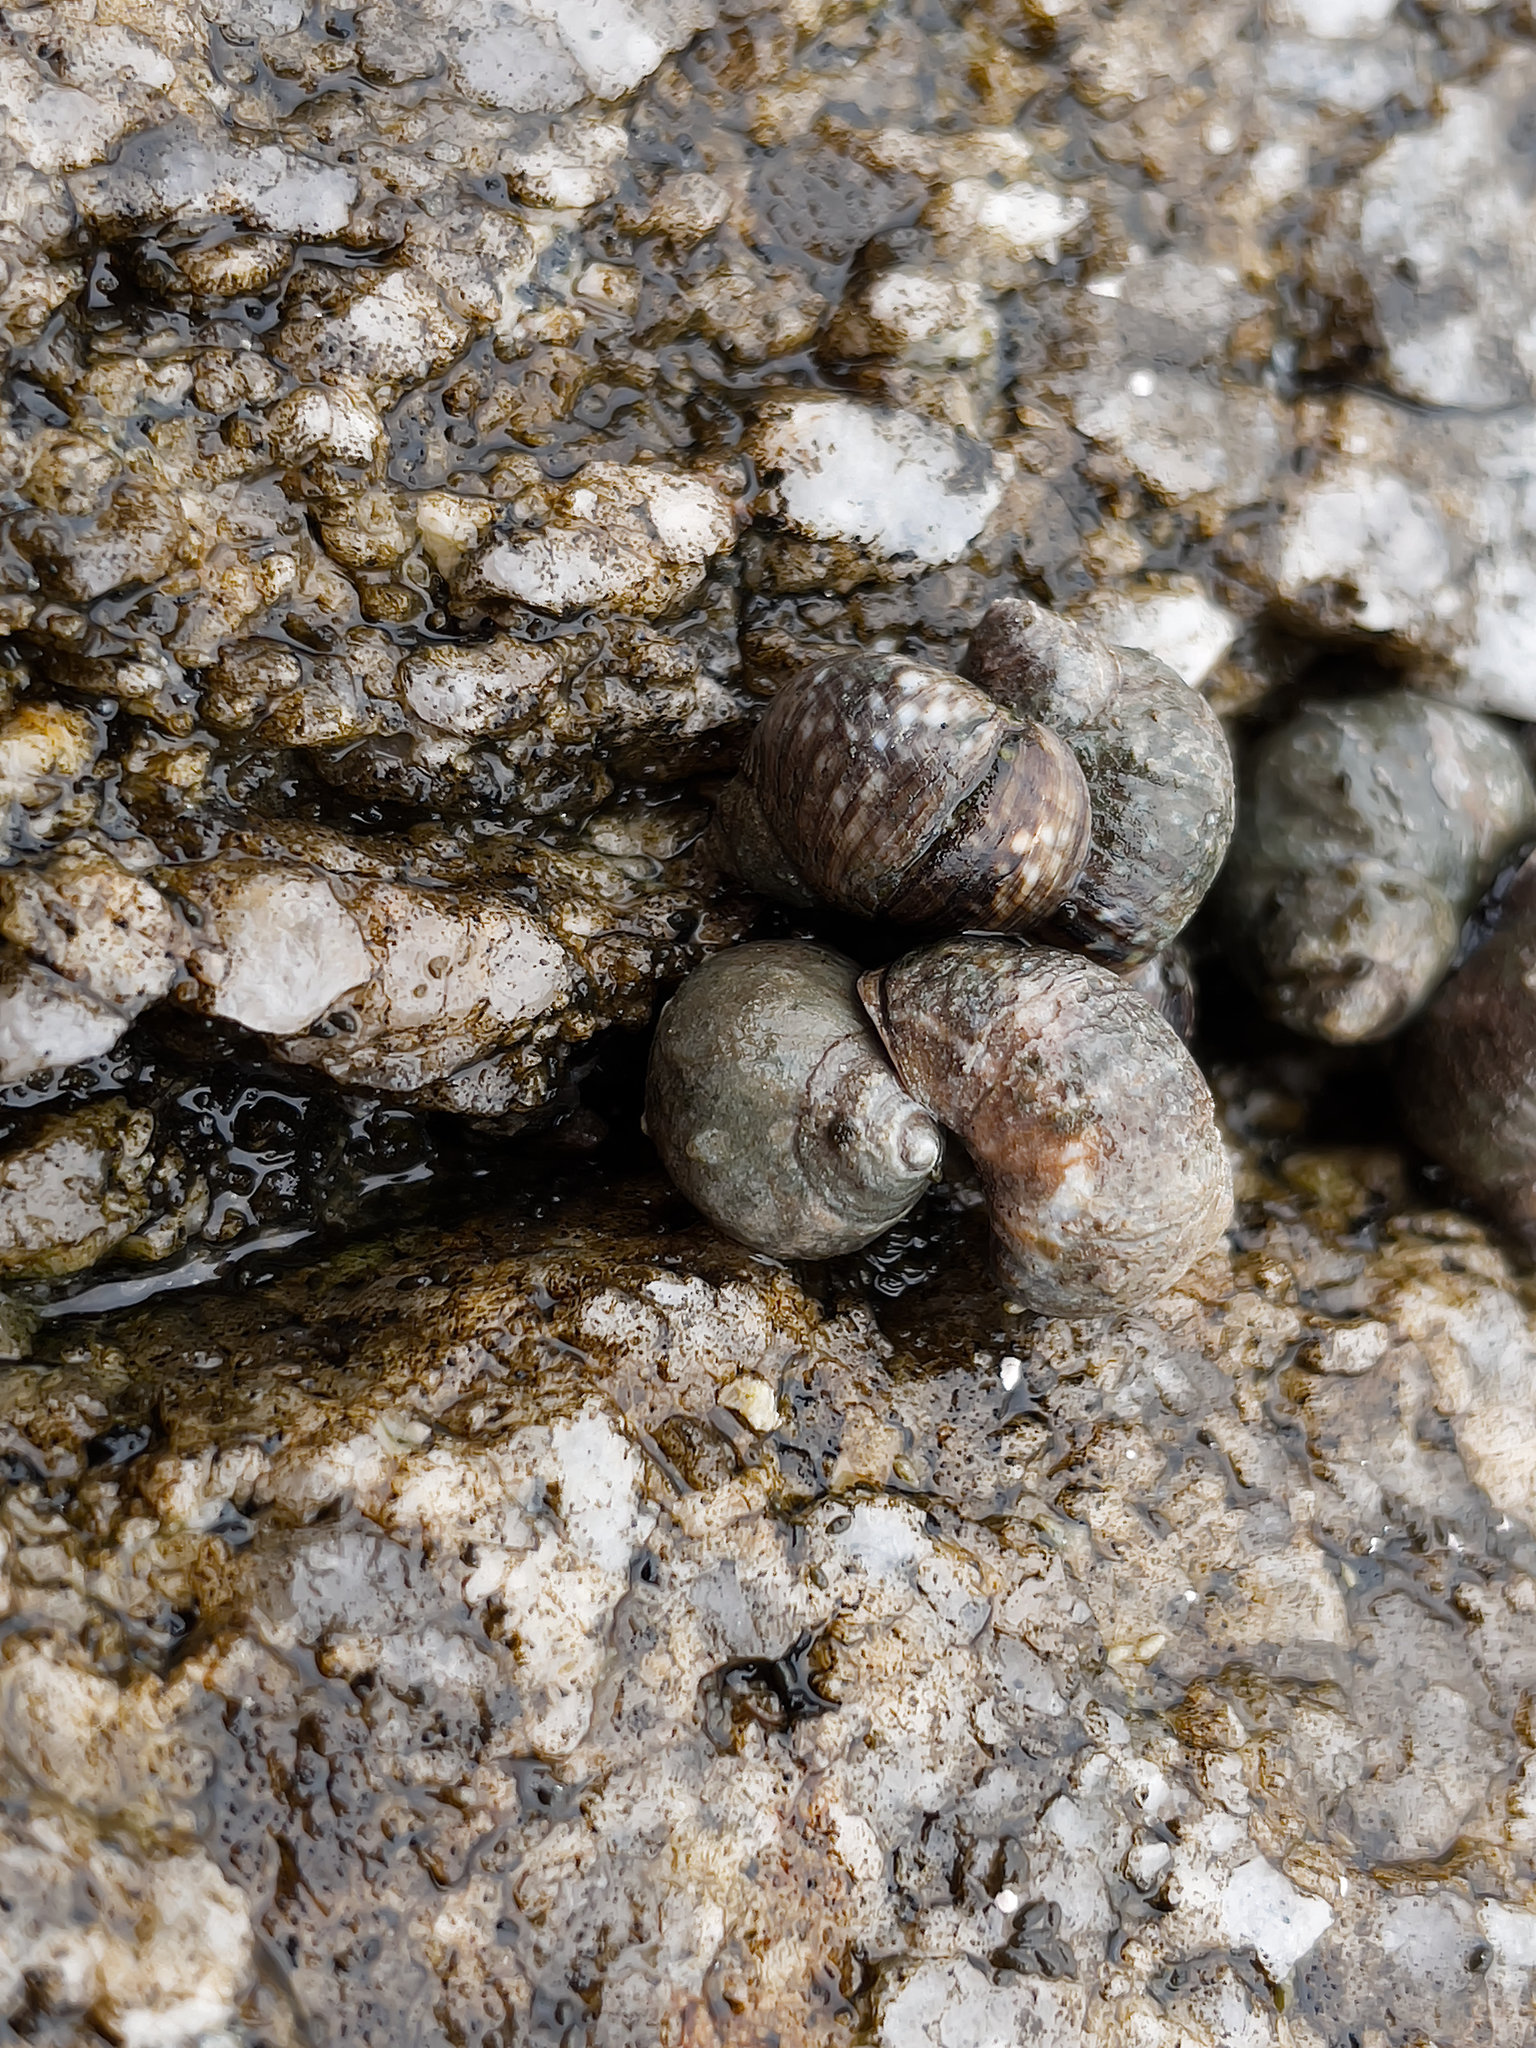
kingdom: Animalia
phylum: Mollusca
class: Gastropoda
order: Littorinimorpha
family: Littorinidae
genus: Littorina
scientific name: Littorina keenae
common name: Eroded periwinkle
